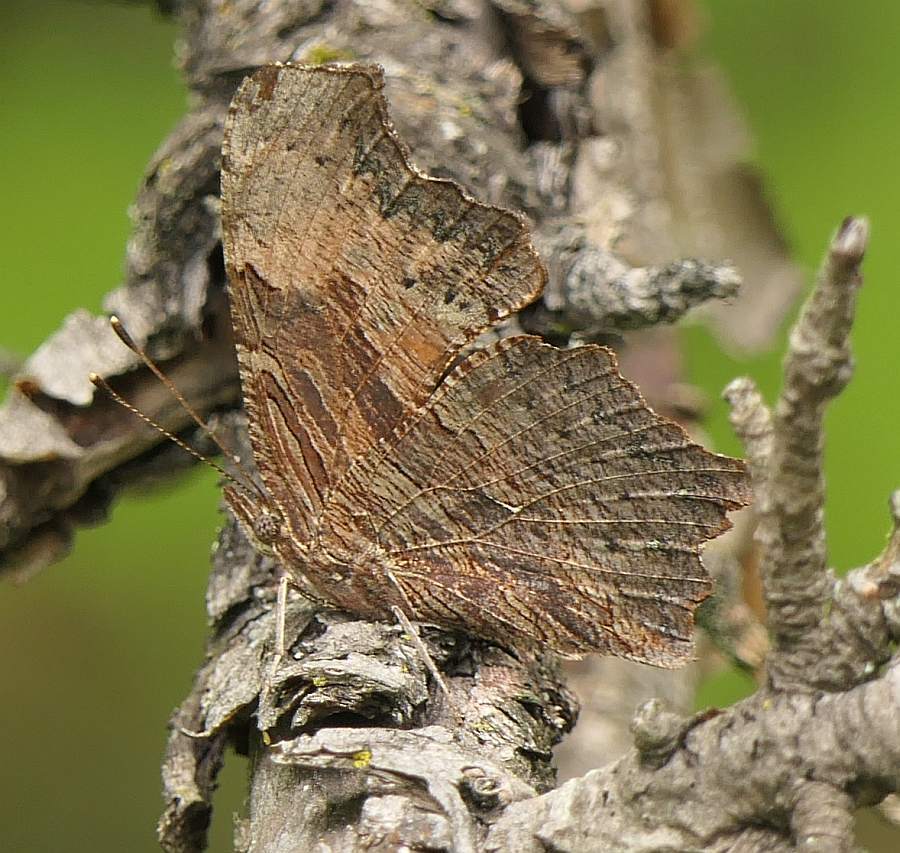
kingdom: Animalia
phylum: Arthropoda
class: Insecta
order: Lepidoptera
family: Nymphalidae
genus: Polygonia
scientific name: Polygonia progne
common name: Gray comma
